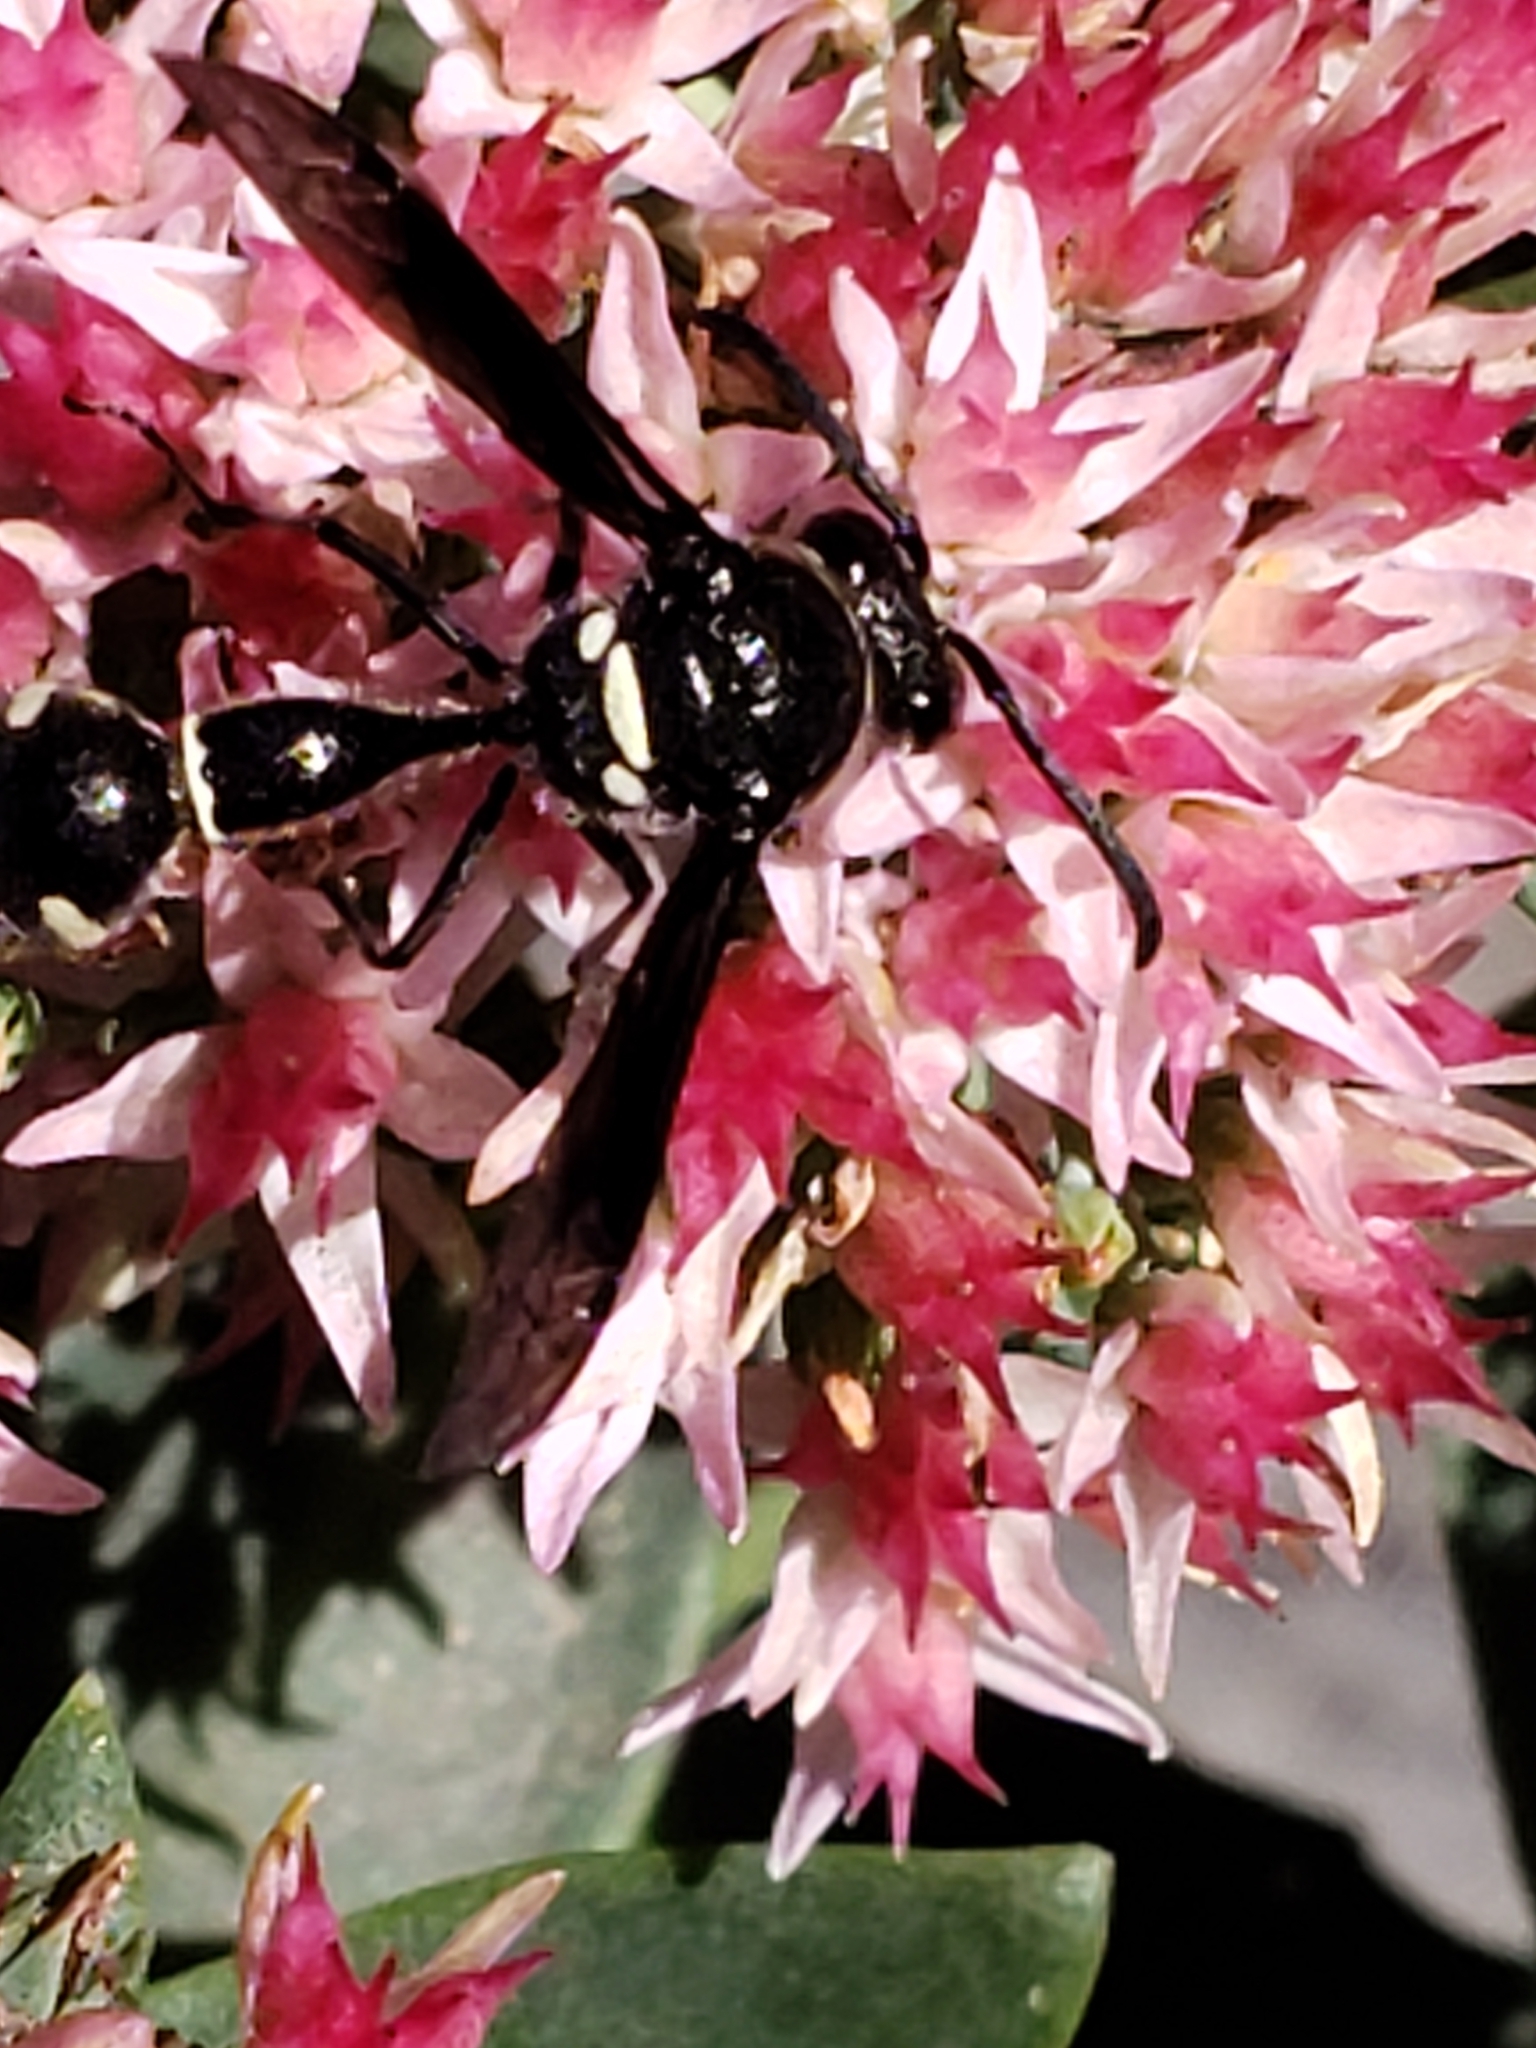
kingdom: Animalia
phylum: Arthropoda
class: Insecta
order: Hymenoptera
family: Vespidae
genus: Eumenes
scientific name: Eumenes fraternus
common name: Fraternal potter wasp
